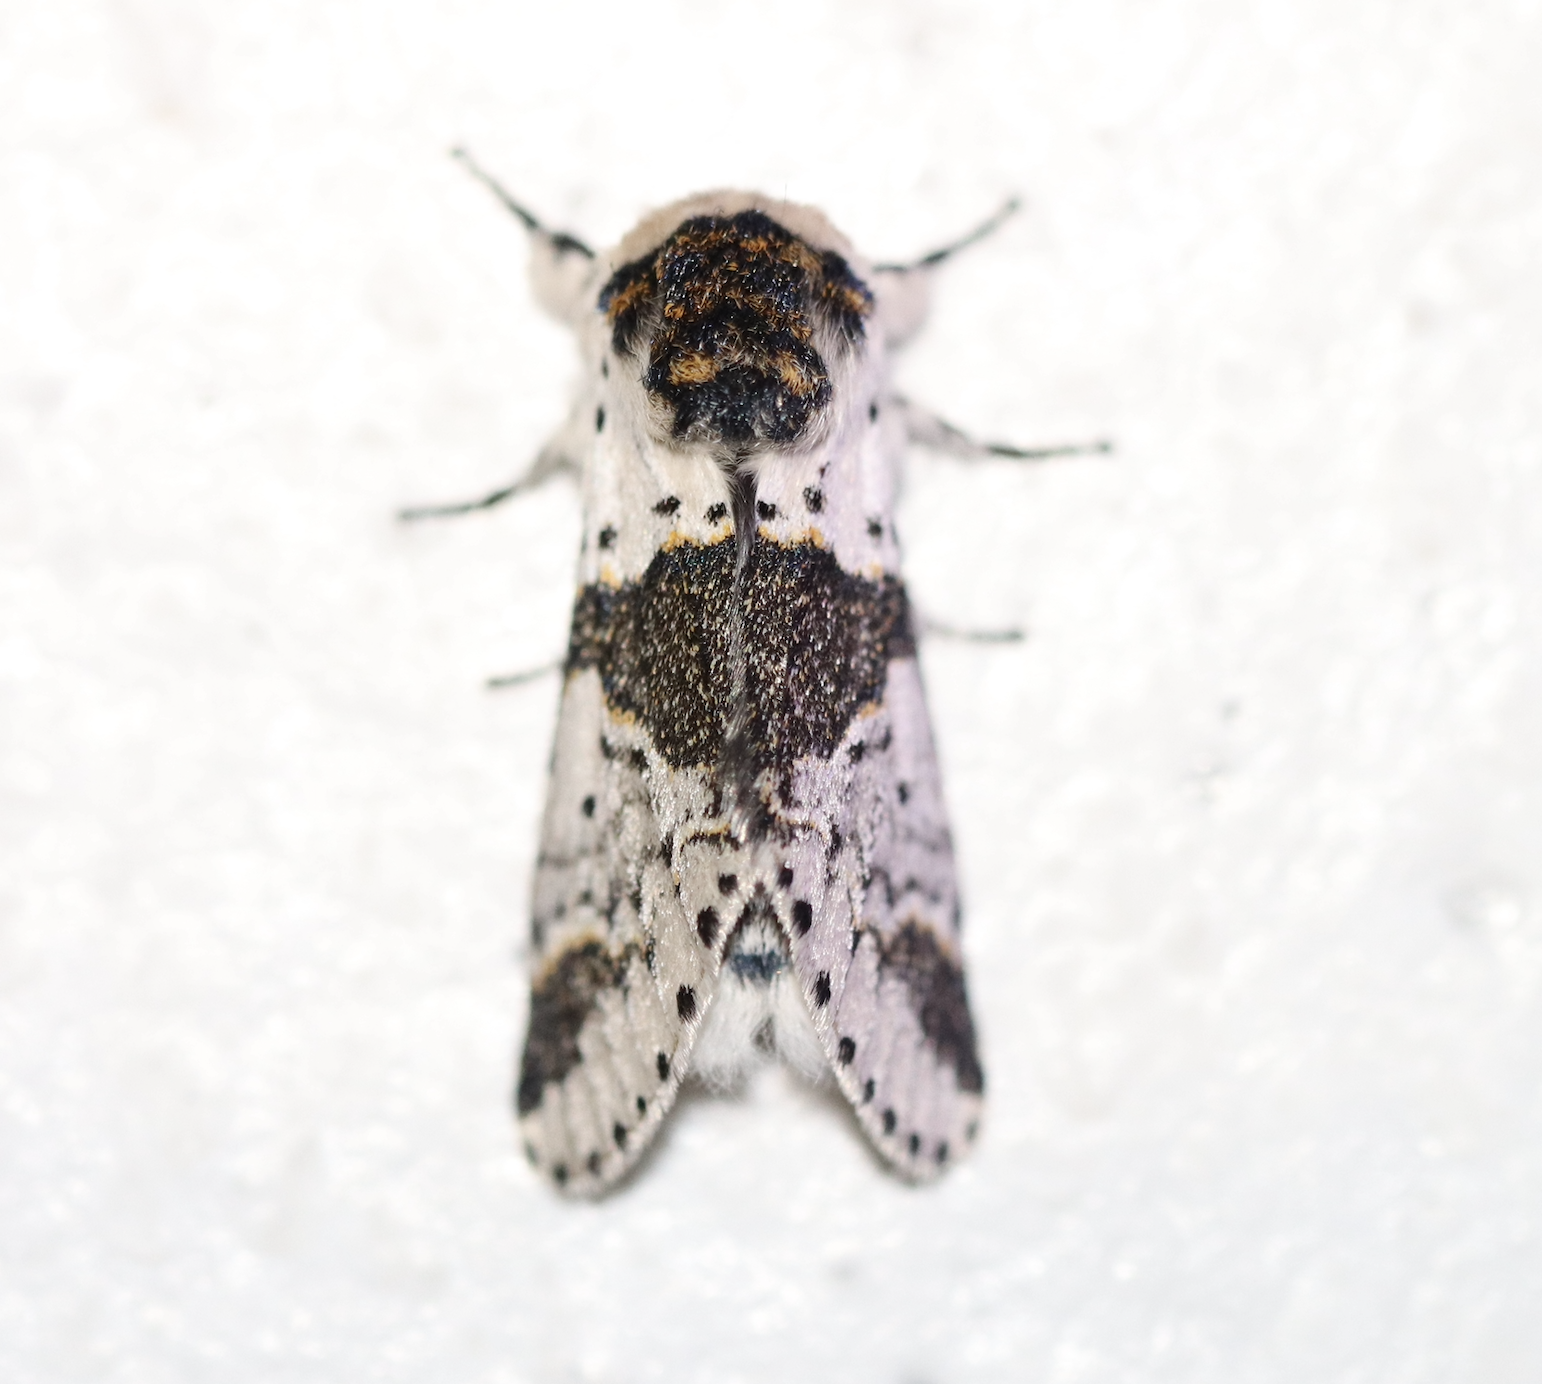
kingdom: Animalia
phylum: Arthropoda
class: Insecta
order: Lepidoptera
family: Notodontidae
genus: Furcula
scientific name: Furcula bicuspis
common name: Alder kitten
